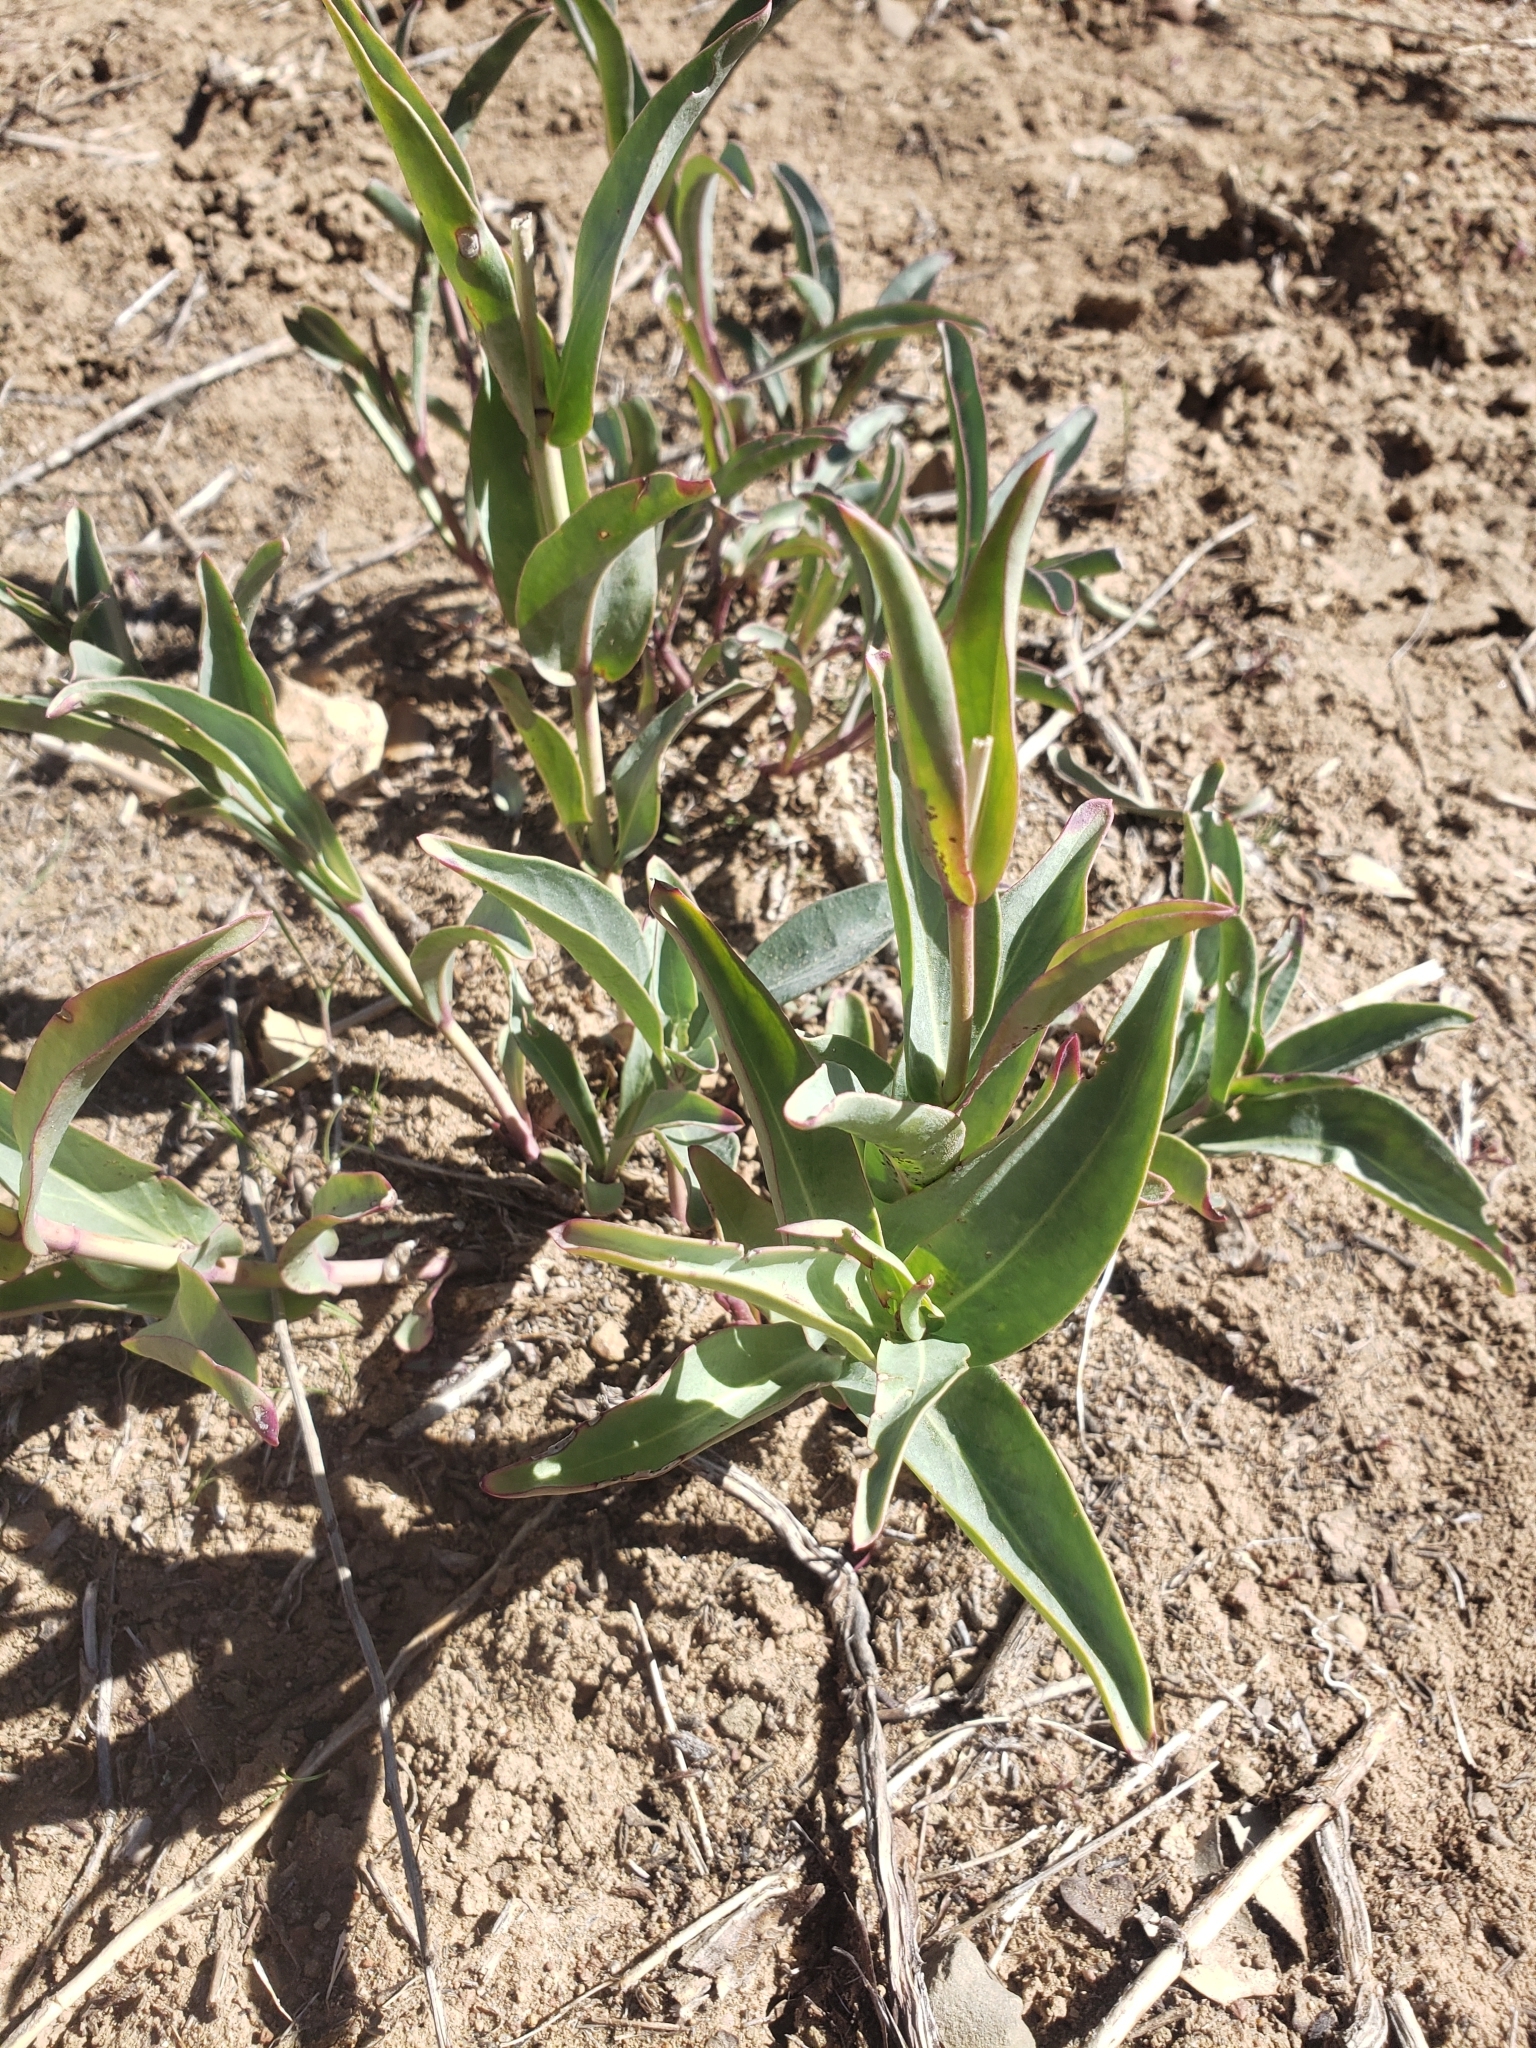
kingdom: Plantae
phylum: Tracheophyta
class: Magnoliopsida
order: Lamiales
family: Plantaginaceae
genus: Penstemon
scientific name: Penstemon centranthifolius
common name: Scarlet bugler
